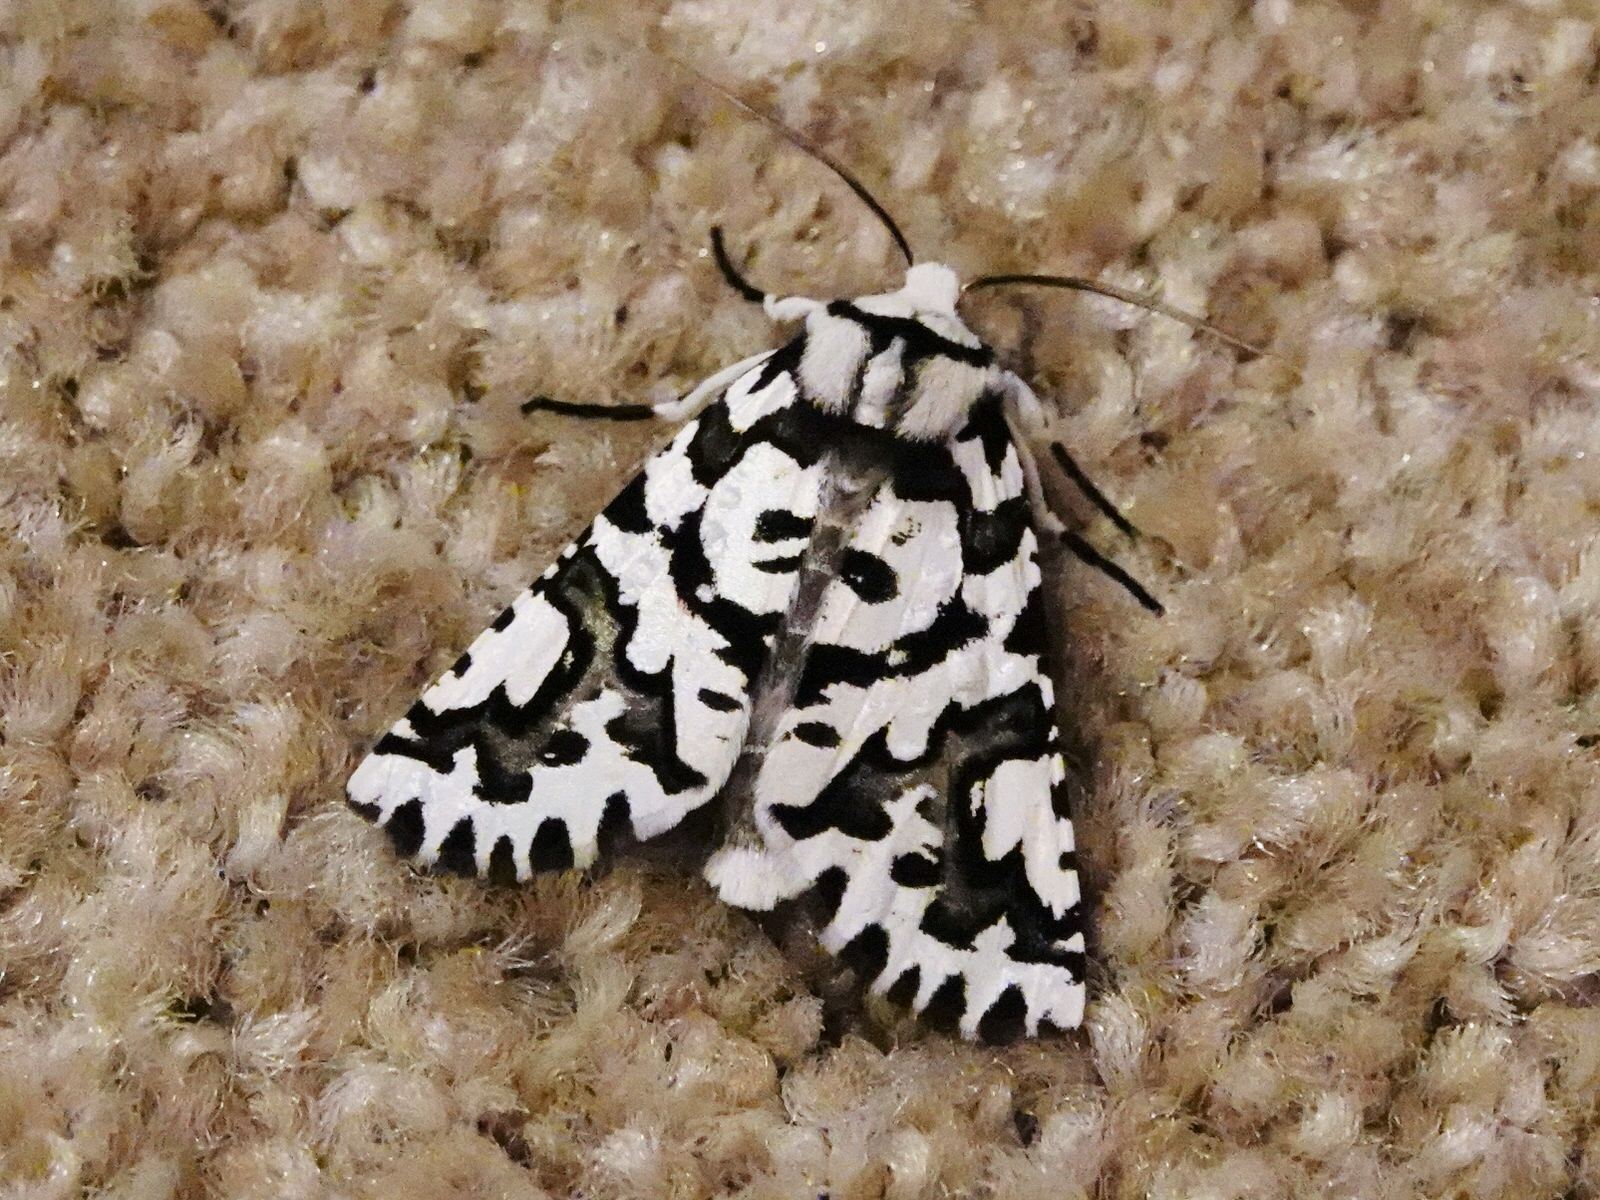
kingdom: Animalia
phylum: Arthropoda
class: Insecta
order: Lepidoptera
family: Geometridae
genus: Declana
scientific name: Declana
